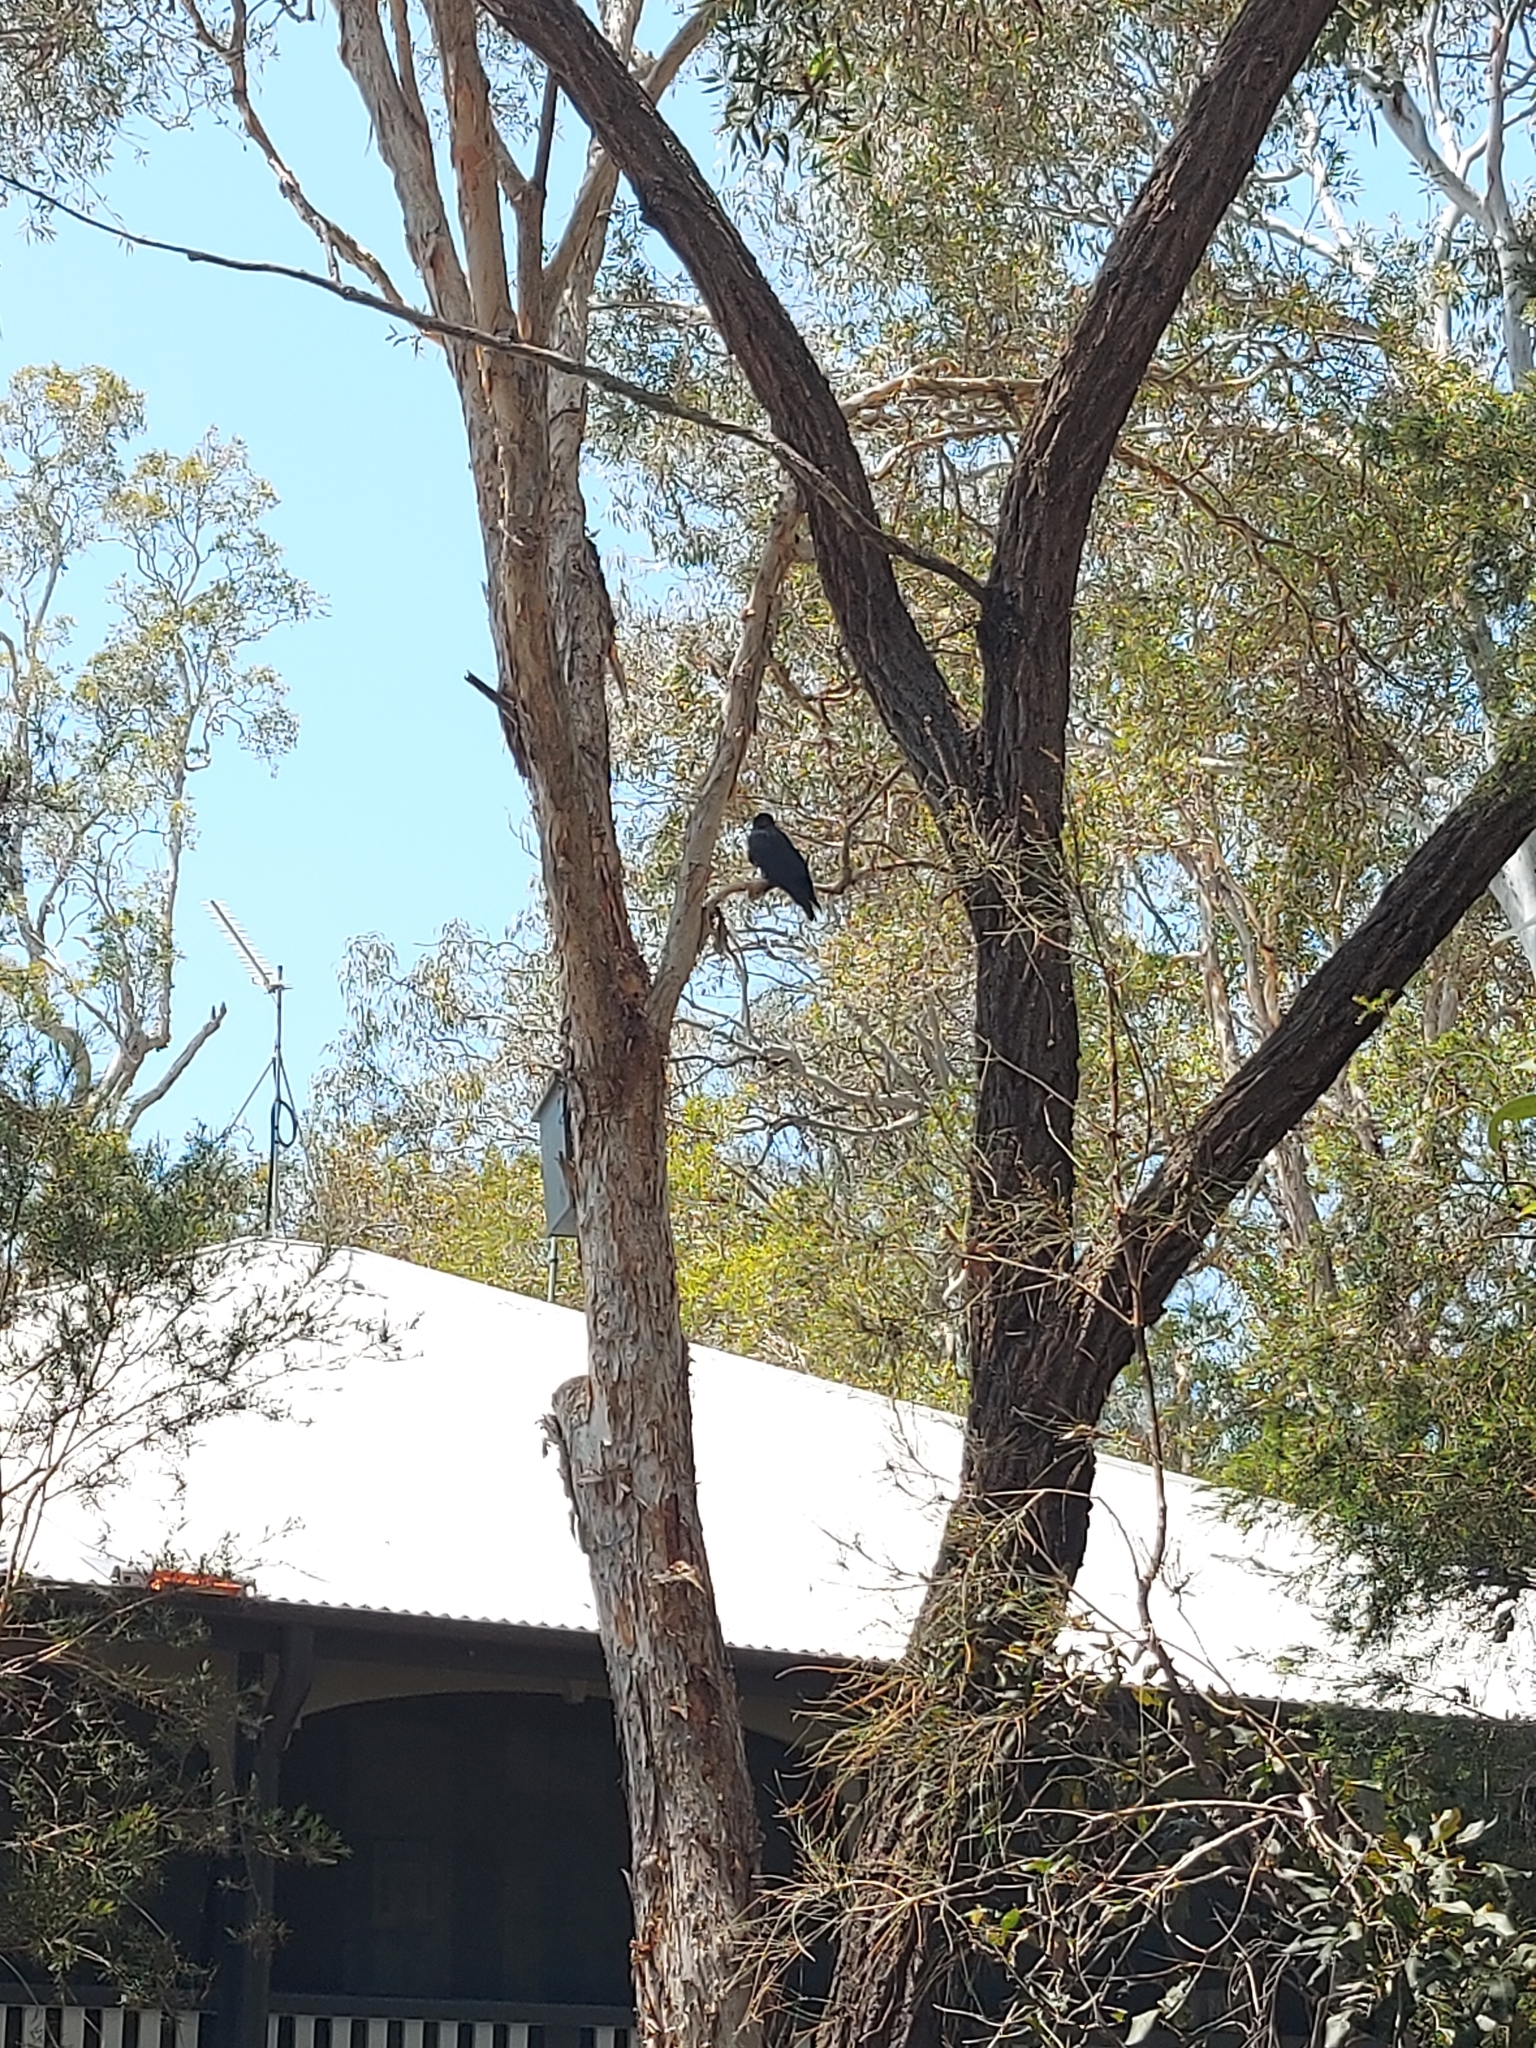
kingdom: Animalia
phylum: Chordata
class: Aves
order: Passeriformes
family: Corvidae
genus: Corvus
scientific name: Corvus orru
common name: Torresian crow
